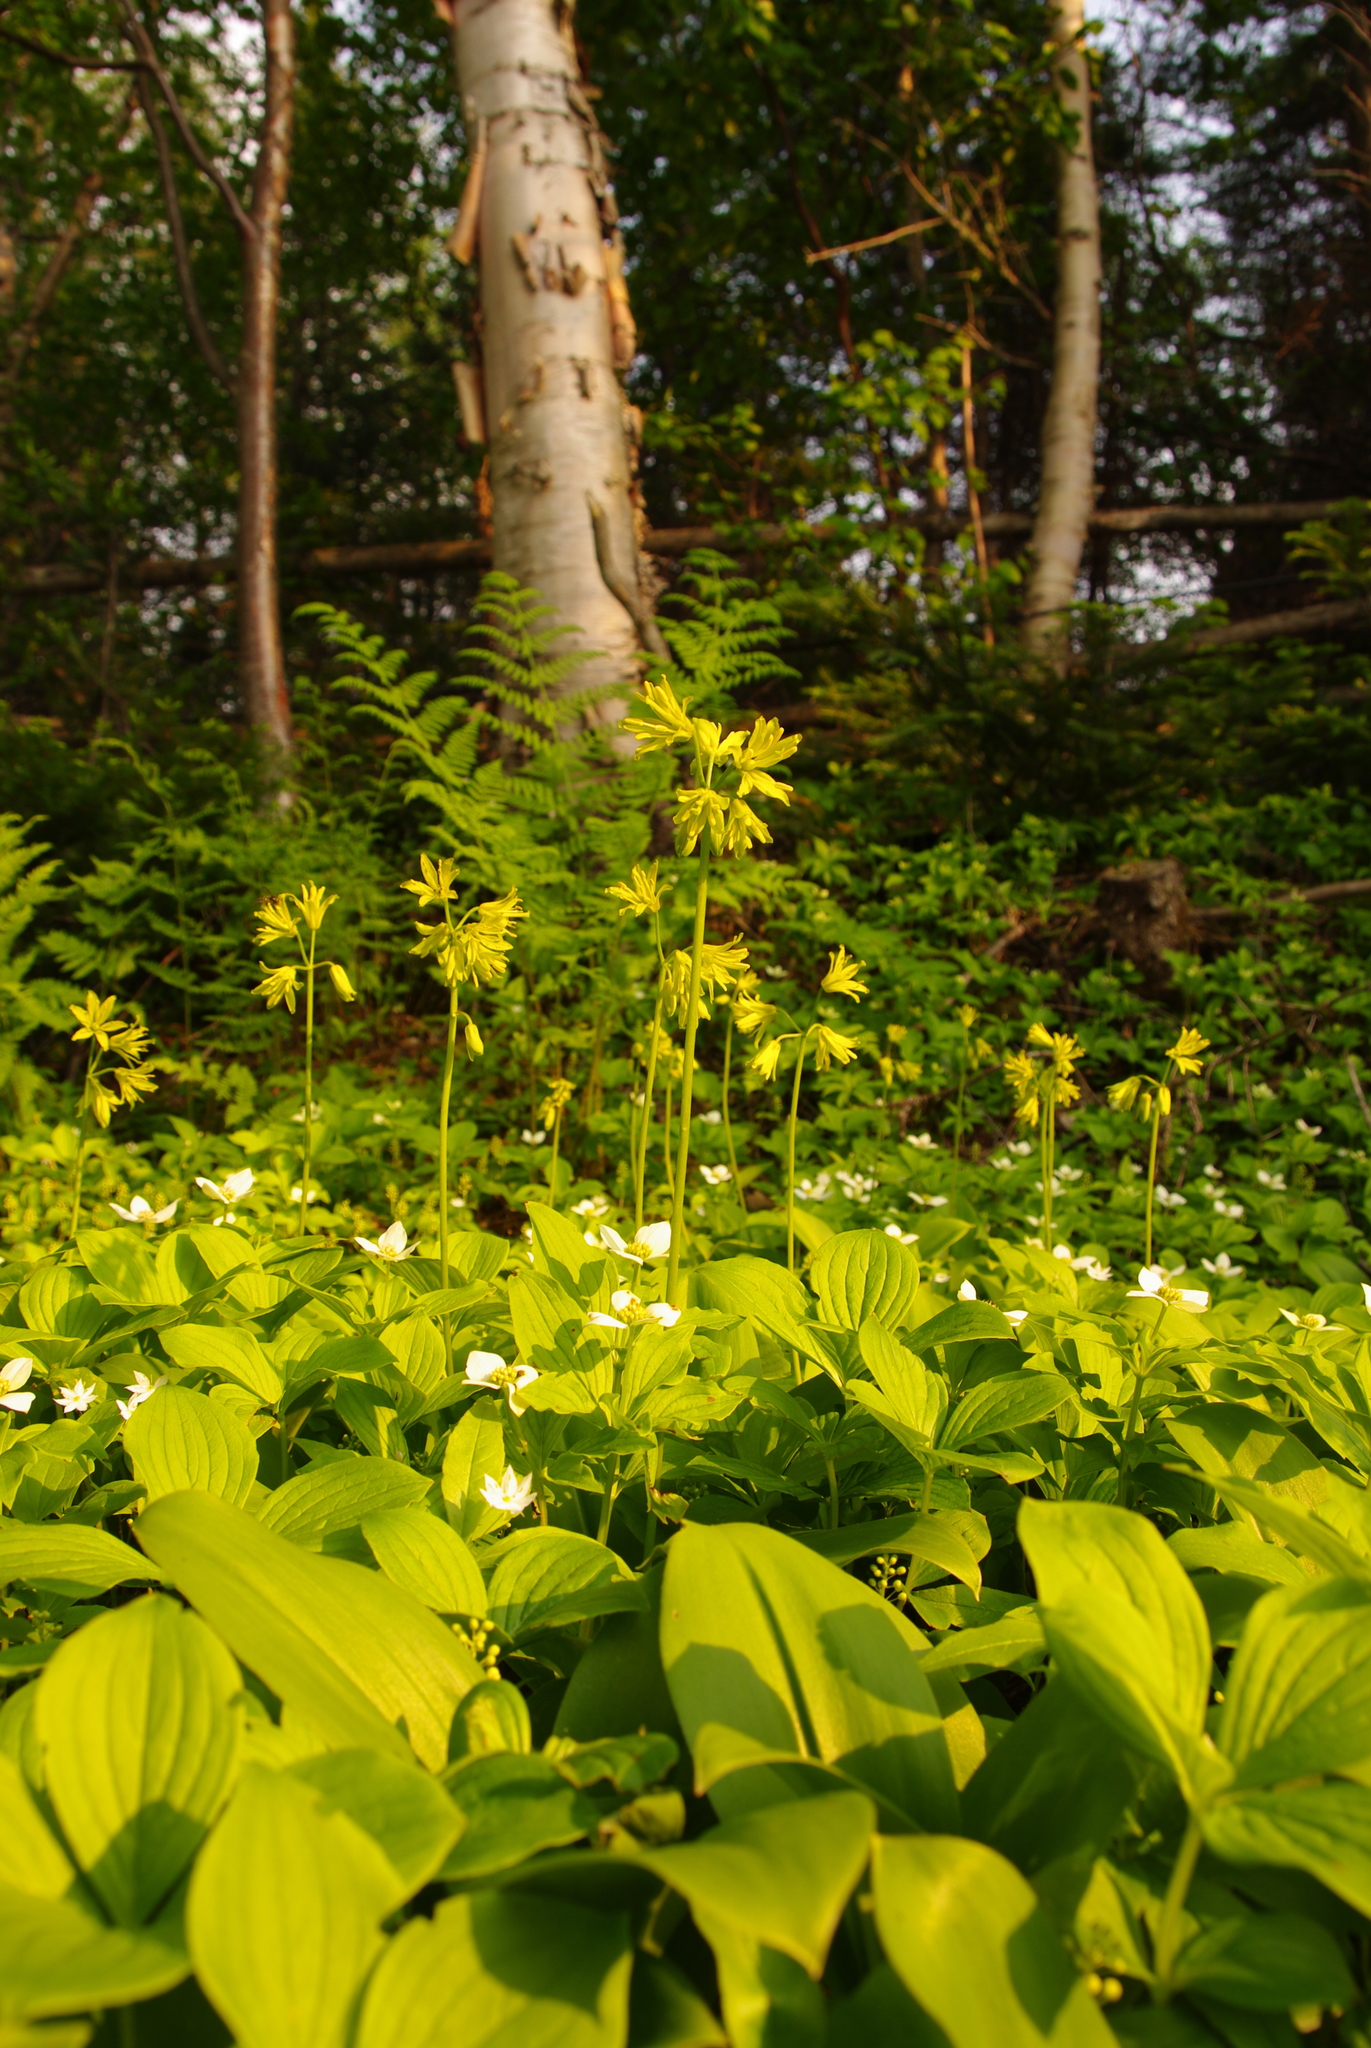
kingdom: Plantae
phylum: Tracheophyta
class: Liliopsida
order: Liliales
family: Liliaceae
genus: Clintonia
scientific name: Clintonia borealis
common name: Yellow clintonia
